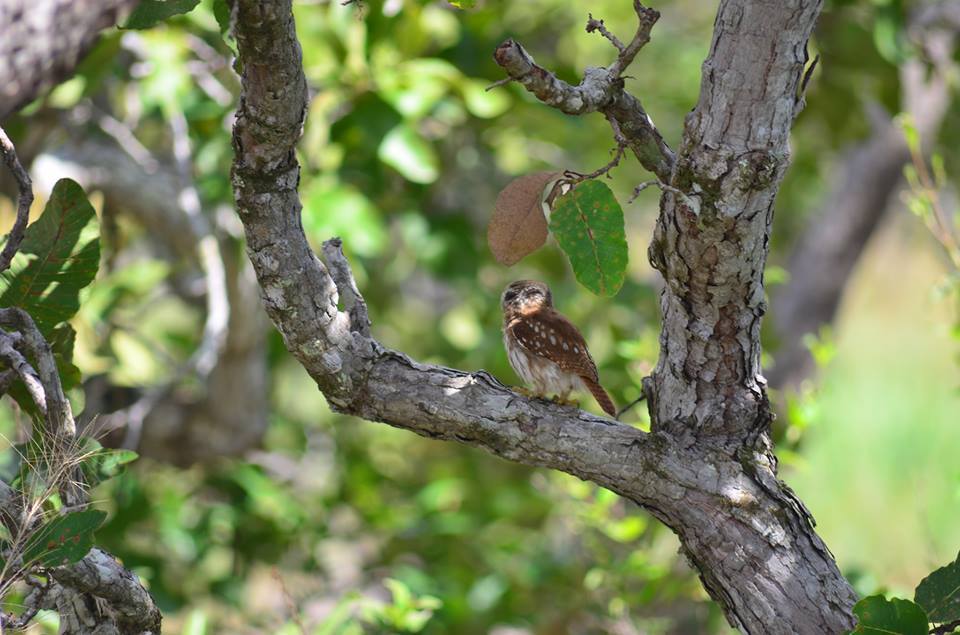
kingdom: Animalia
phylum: Chordata
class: Aves
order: Strigiformes
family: Strigidae
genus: Glaucidium
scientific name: Glaucidium brasilianum
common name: Ferruginous pygmy-owl
